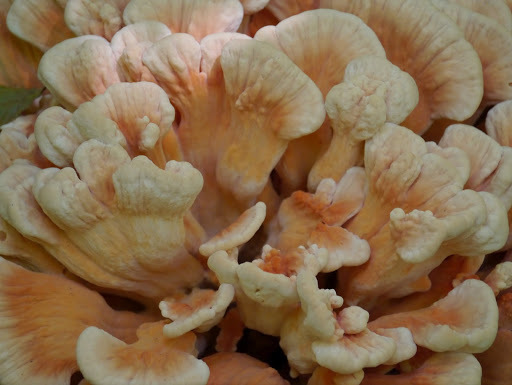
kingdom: Fungi
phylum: Basidiomycota
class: Agaricomycetes
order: Polyporales
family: Laetiporaceae
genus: Laetiporus
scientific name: Laetiporus sulphureus
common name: Chicken of the woods
